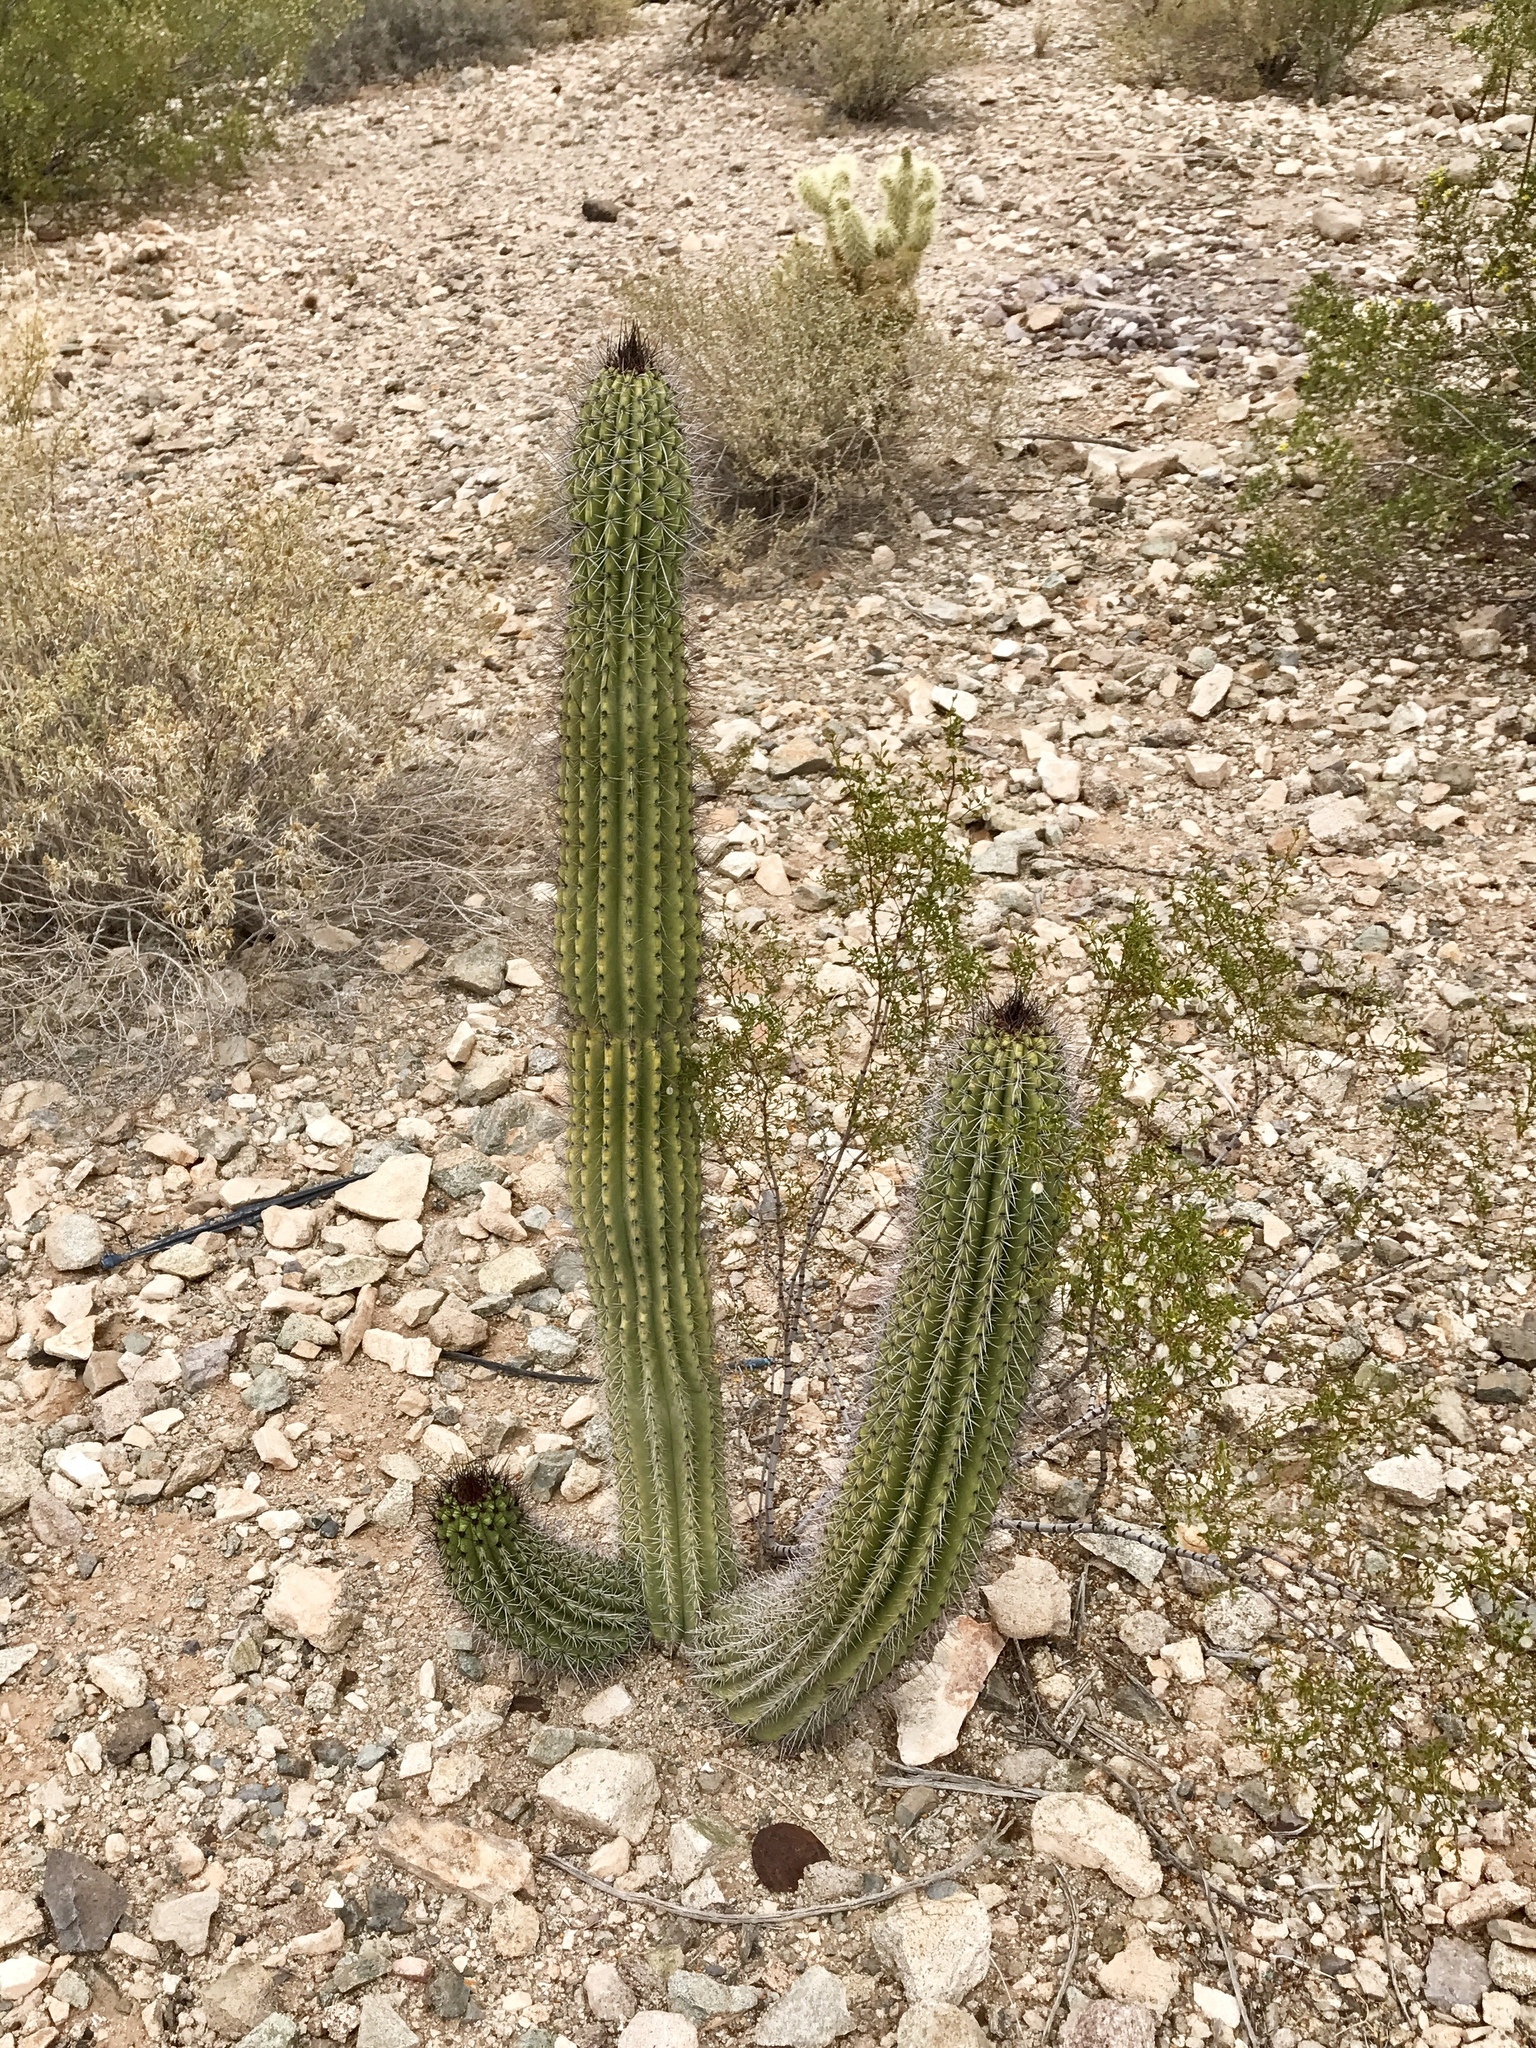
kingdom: Plantae
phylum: Tracheophyta
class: Magnoliopsida
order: Caryophyllales
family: Cactaceae
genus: Stenocereus
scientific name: Stenocereus thurberi
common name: Organ pipe cactus
